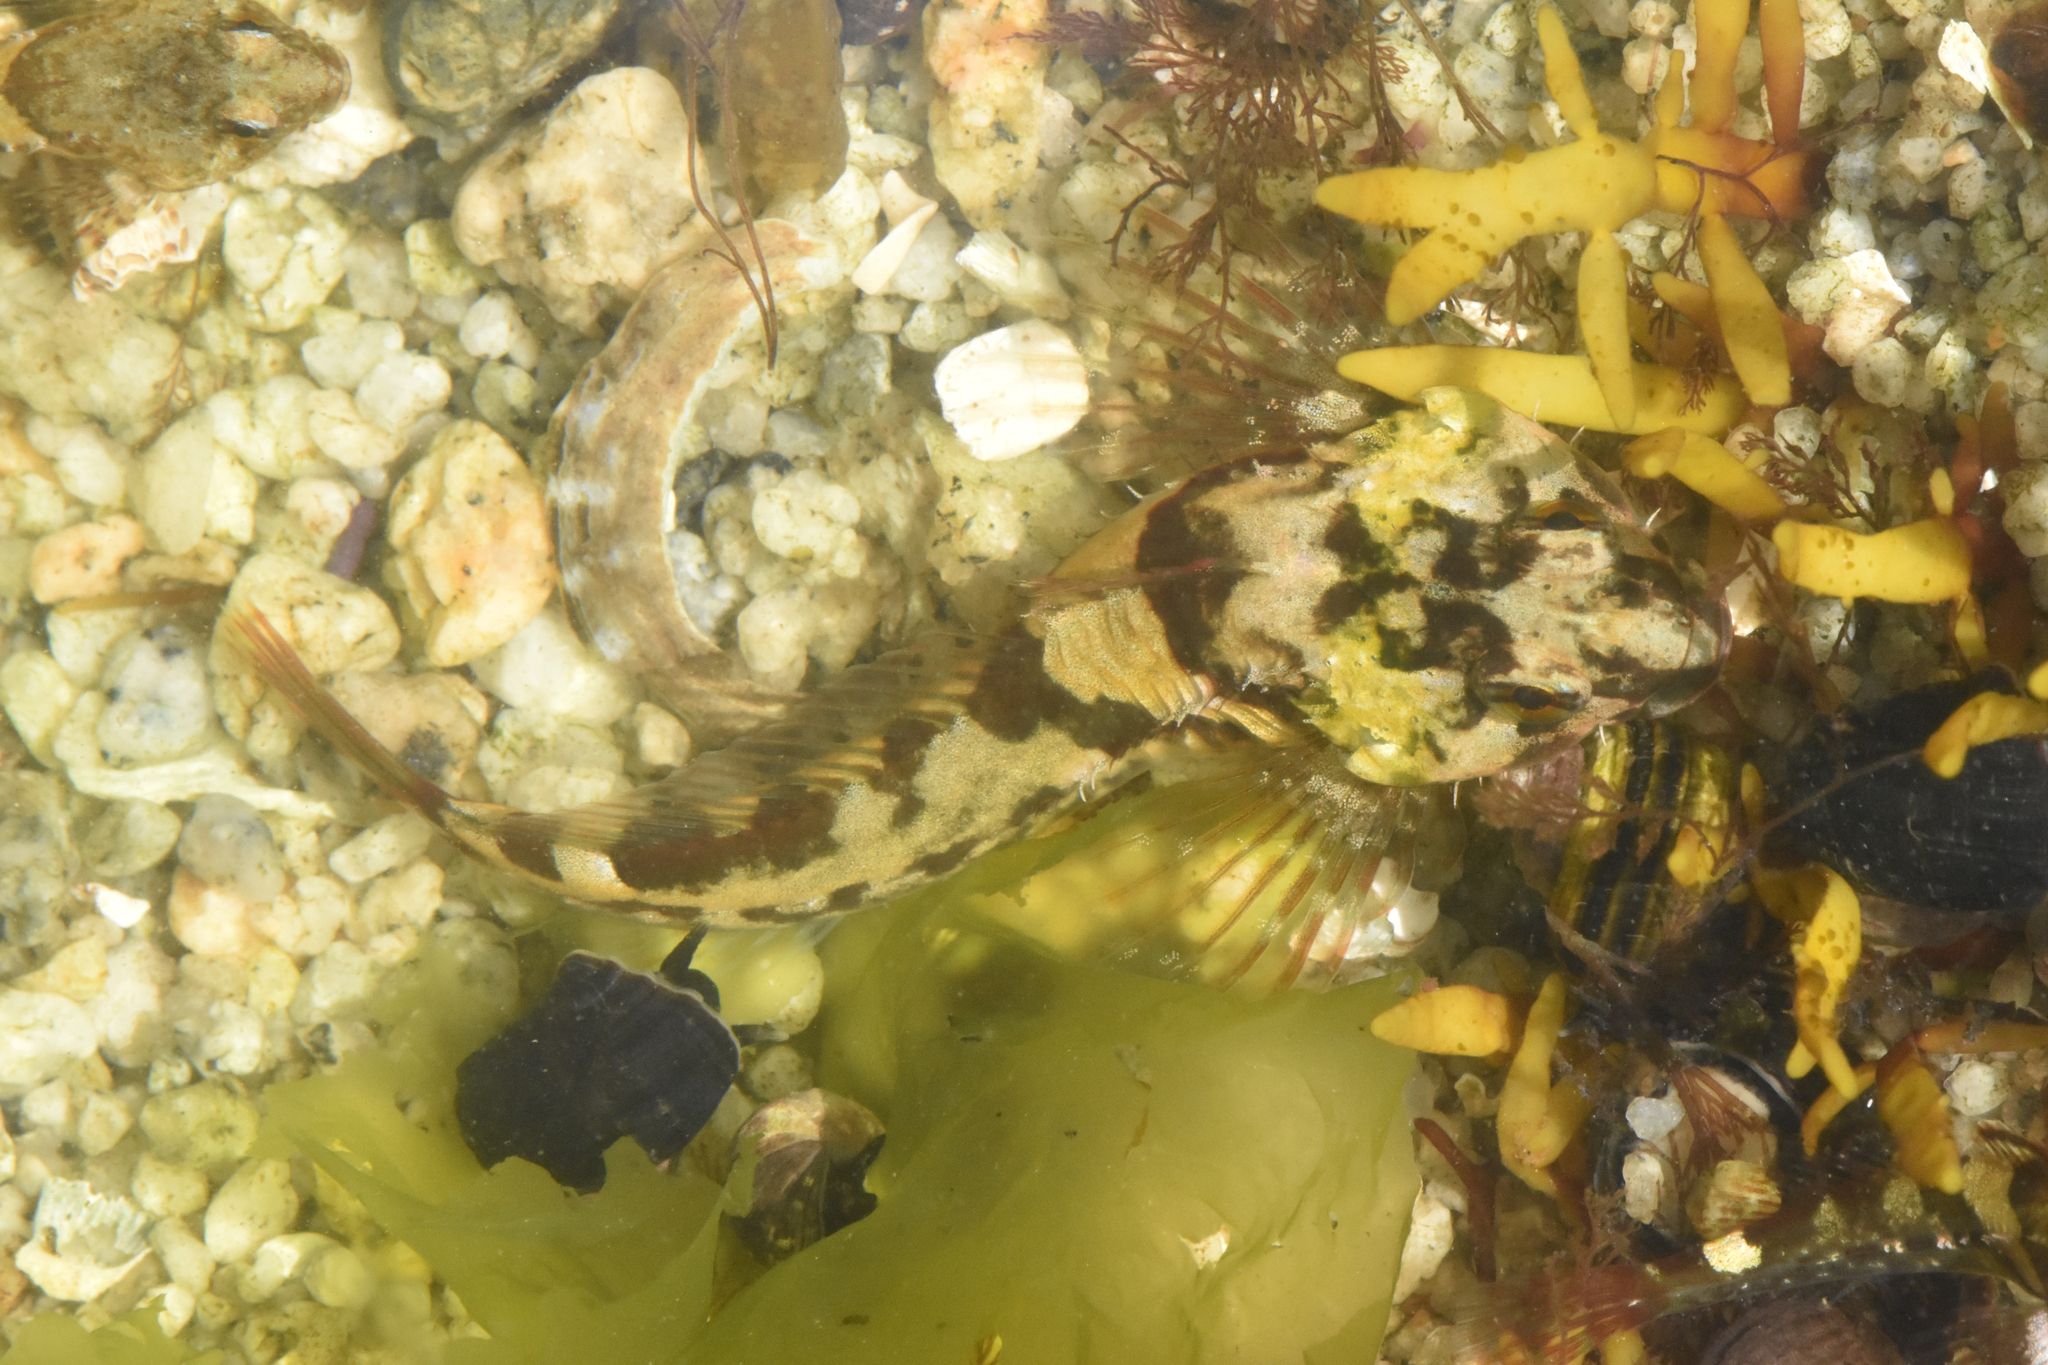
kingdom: Animalia
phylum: Chordata
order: Scorpaeniformes
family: Cottidae
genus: Oligocottus
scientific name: Oligocottus maculosus
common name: Tidepool sculpin
